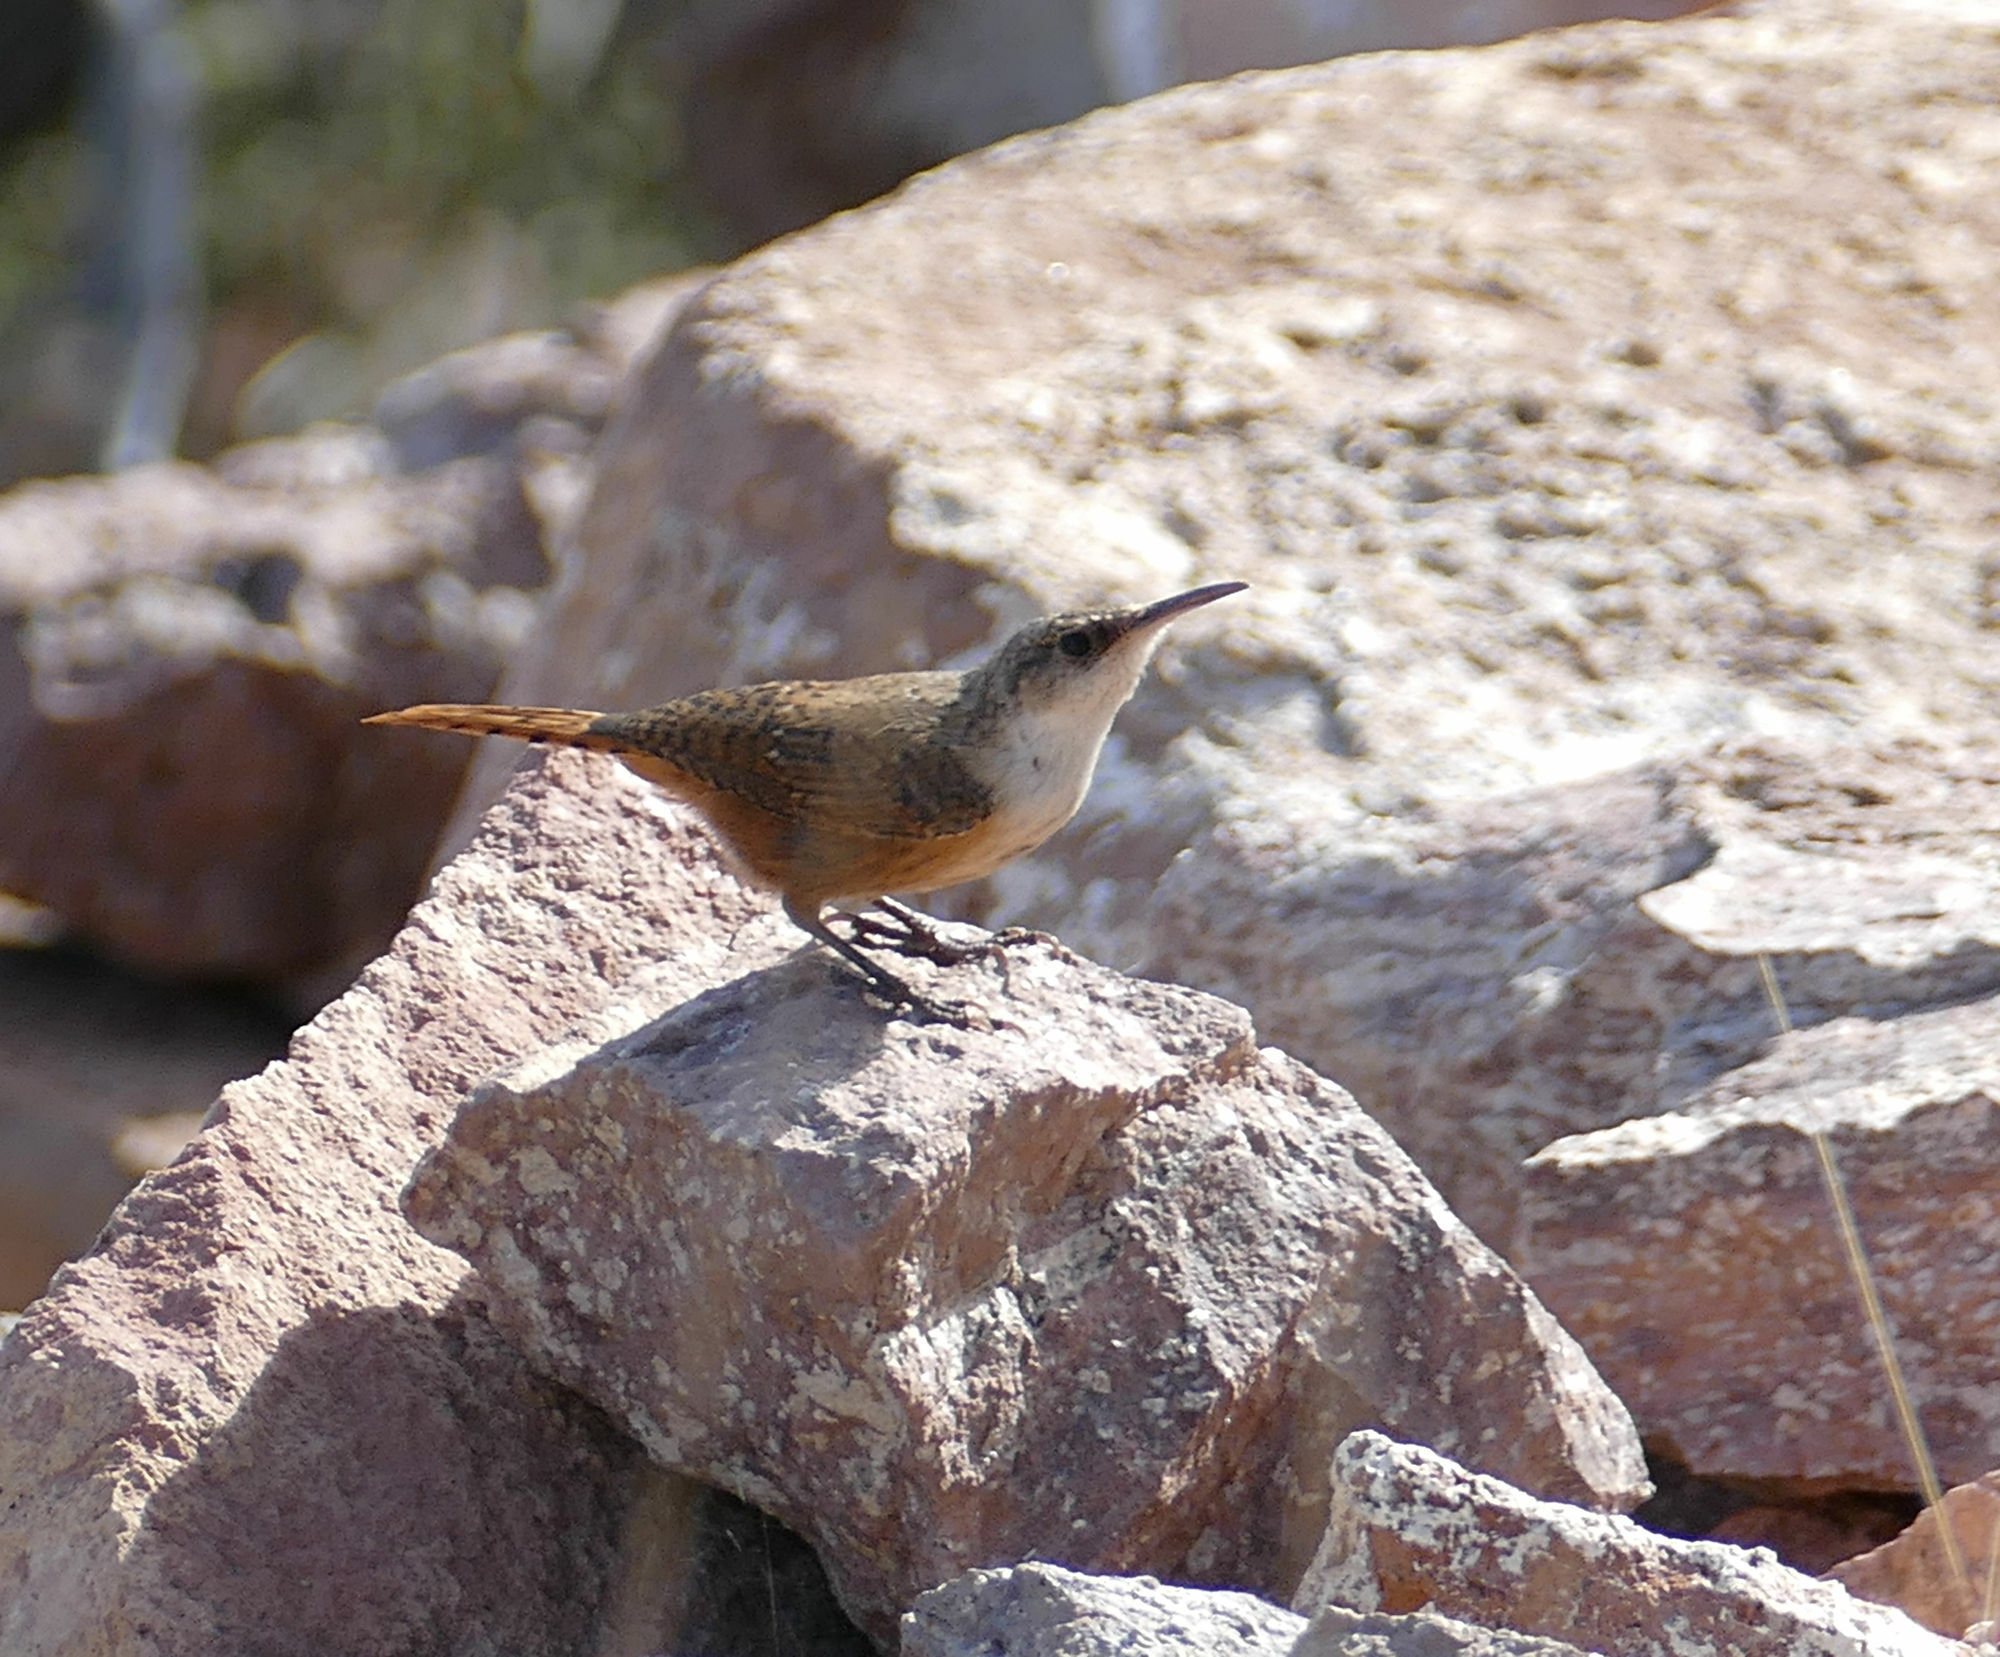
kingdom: Animalia
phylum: Chordata
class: Aves
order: Passeriformes
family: Troglodytidae
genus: Catherpes
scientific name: Catherpes mexicanus
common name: Canyon wren
